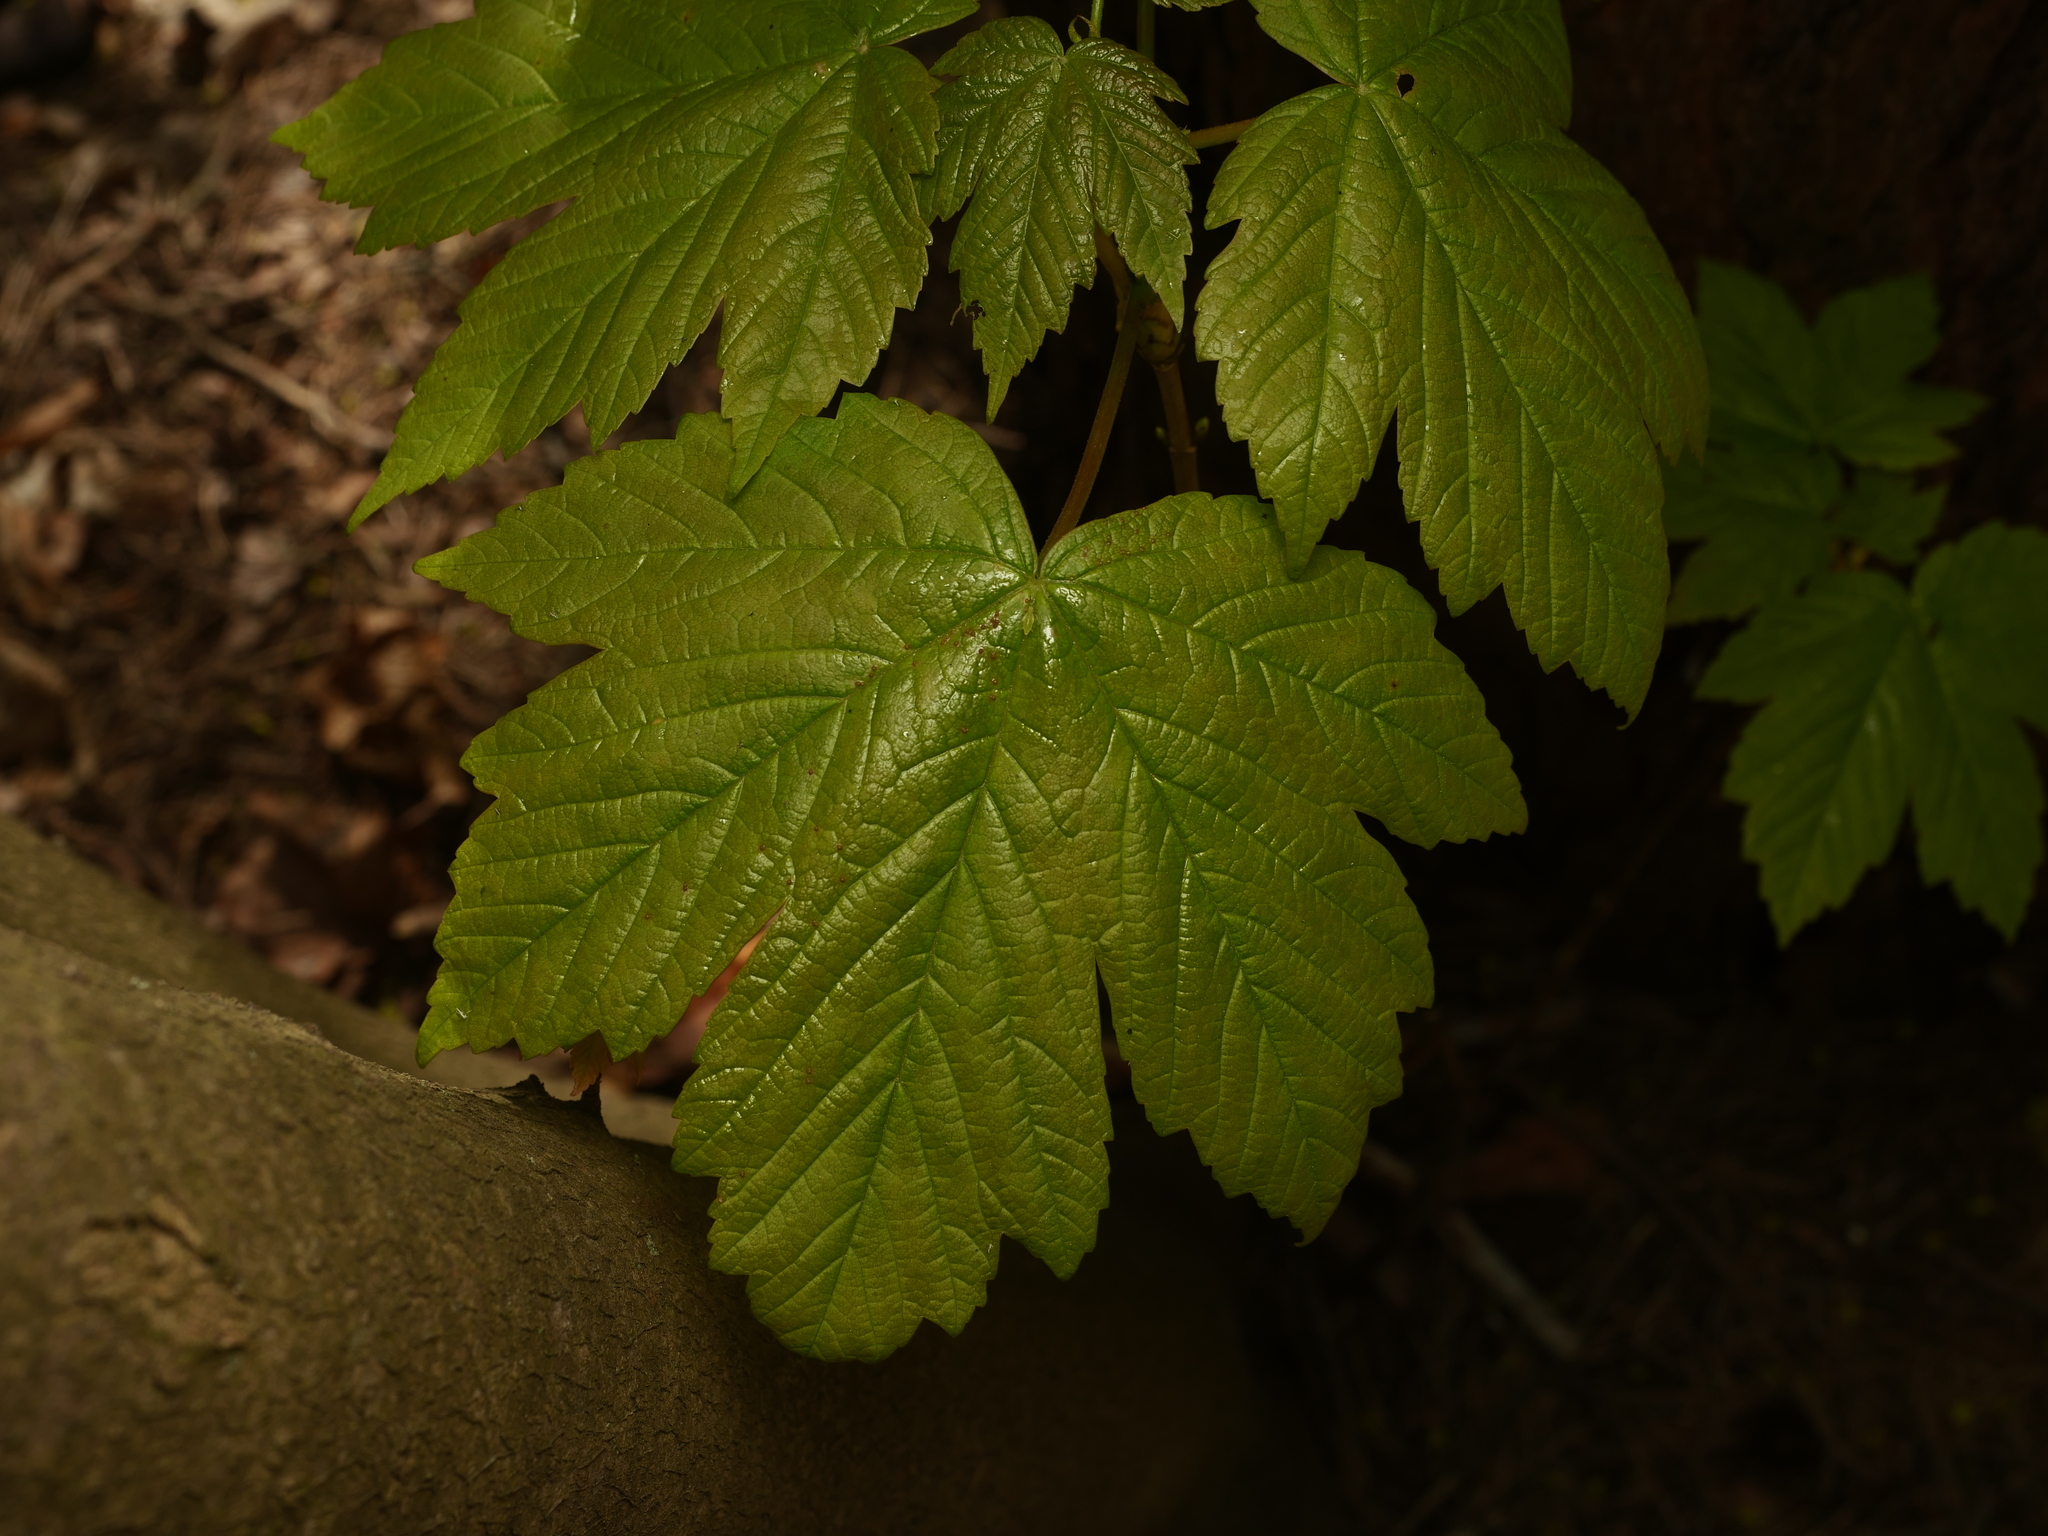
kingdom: Plantae
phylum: Tracheophyta
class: Magnoliopsida
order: Sapindales
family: Sapindaceae
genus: Acer
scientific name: Acer pseudoplatanus
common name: Sycamore
